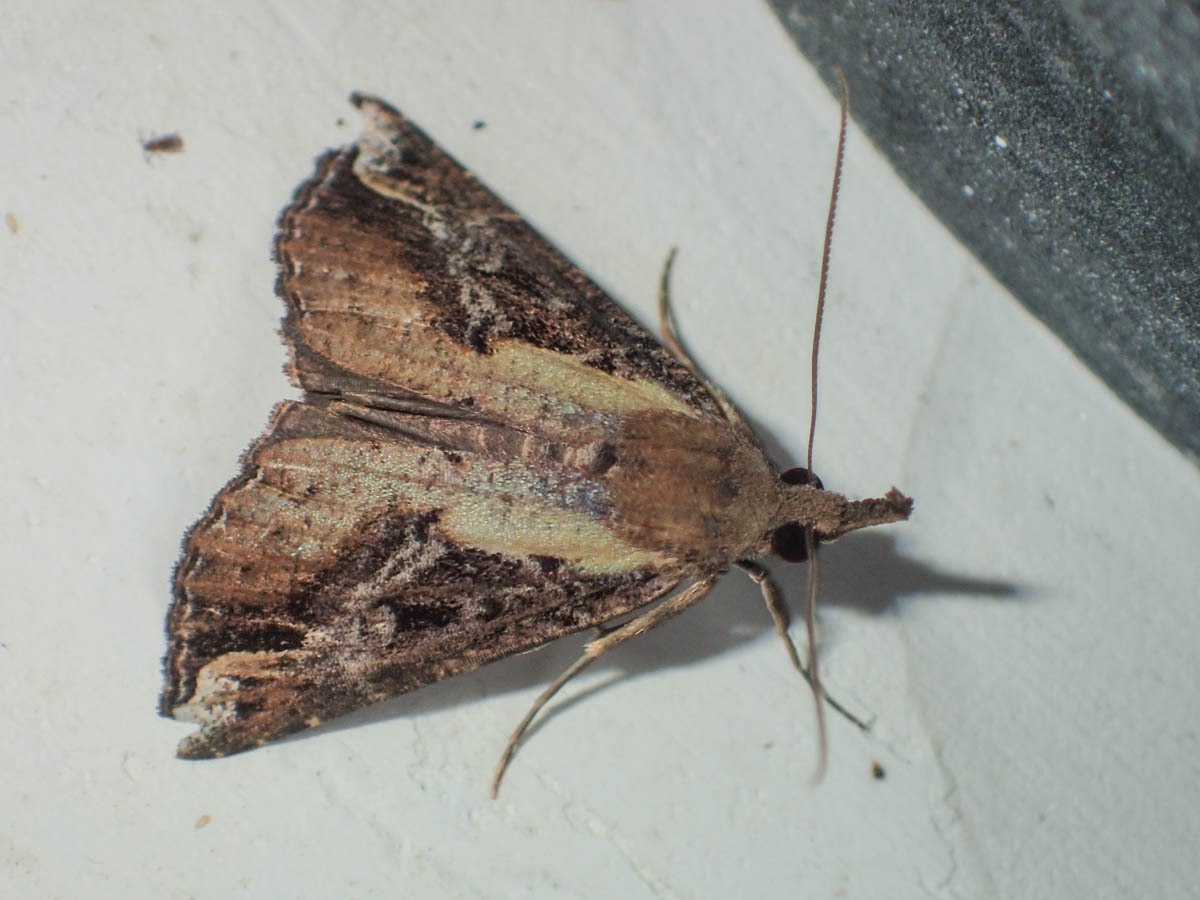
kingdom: Animalia
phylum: Arthropoda
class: Insecta
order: Lepidoptera
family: Erebidae
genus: Hypena
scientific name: Hypena abjectalis
